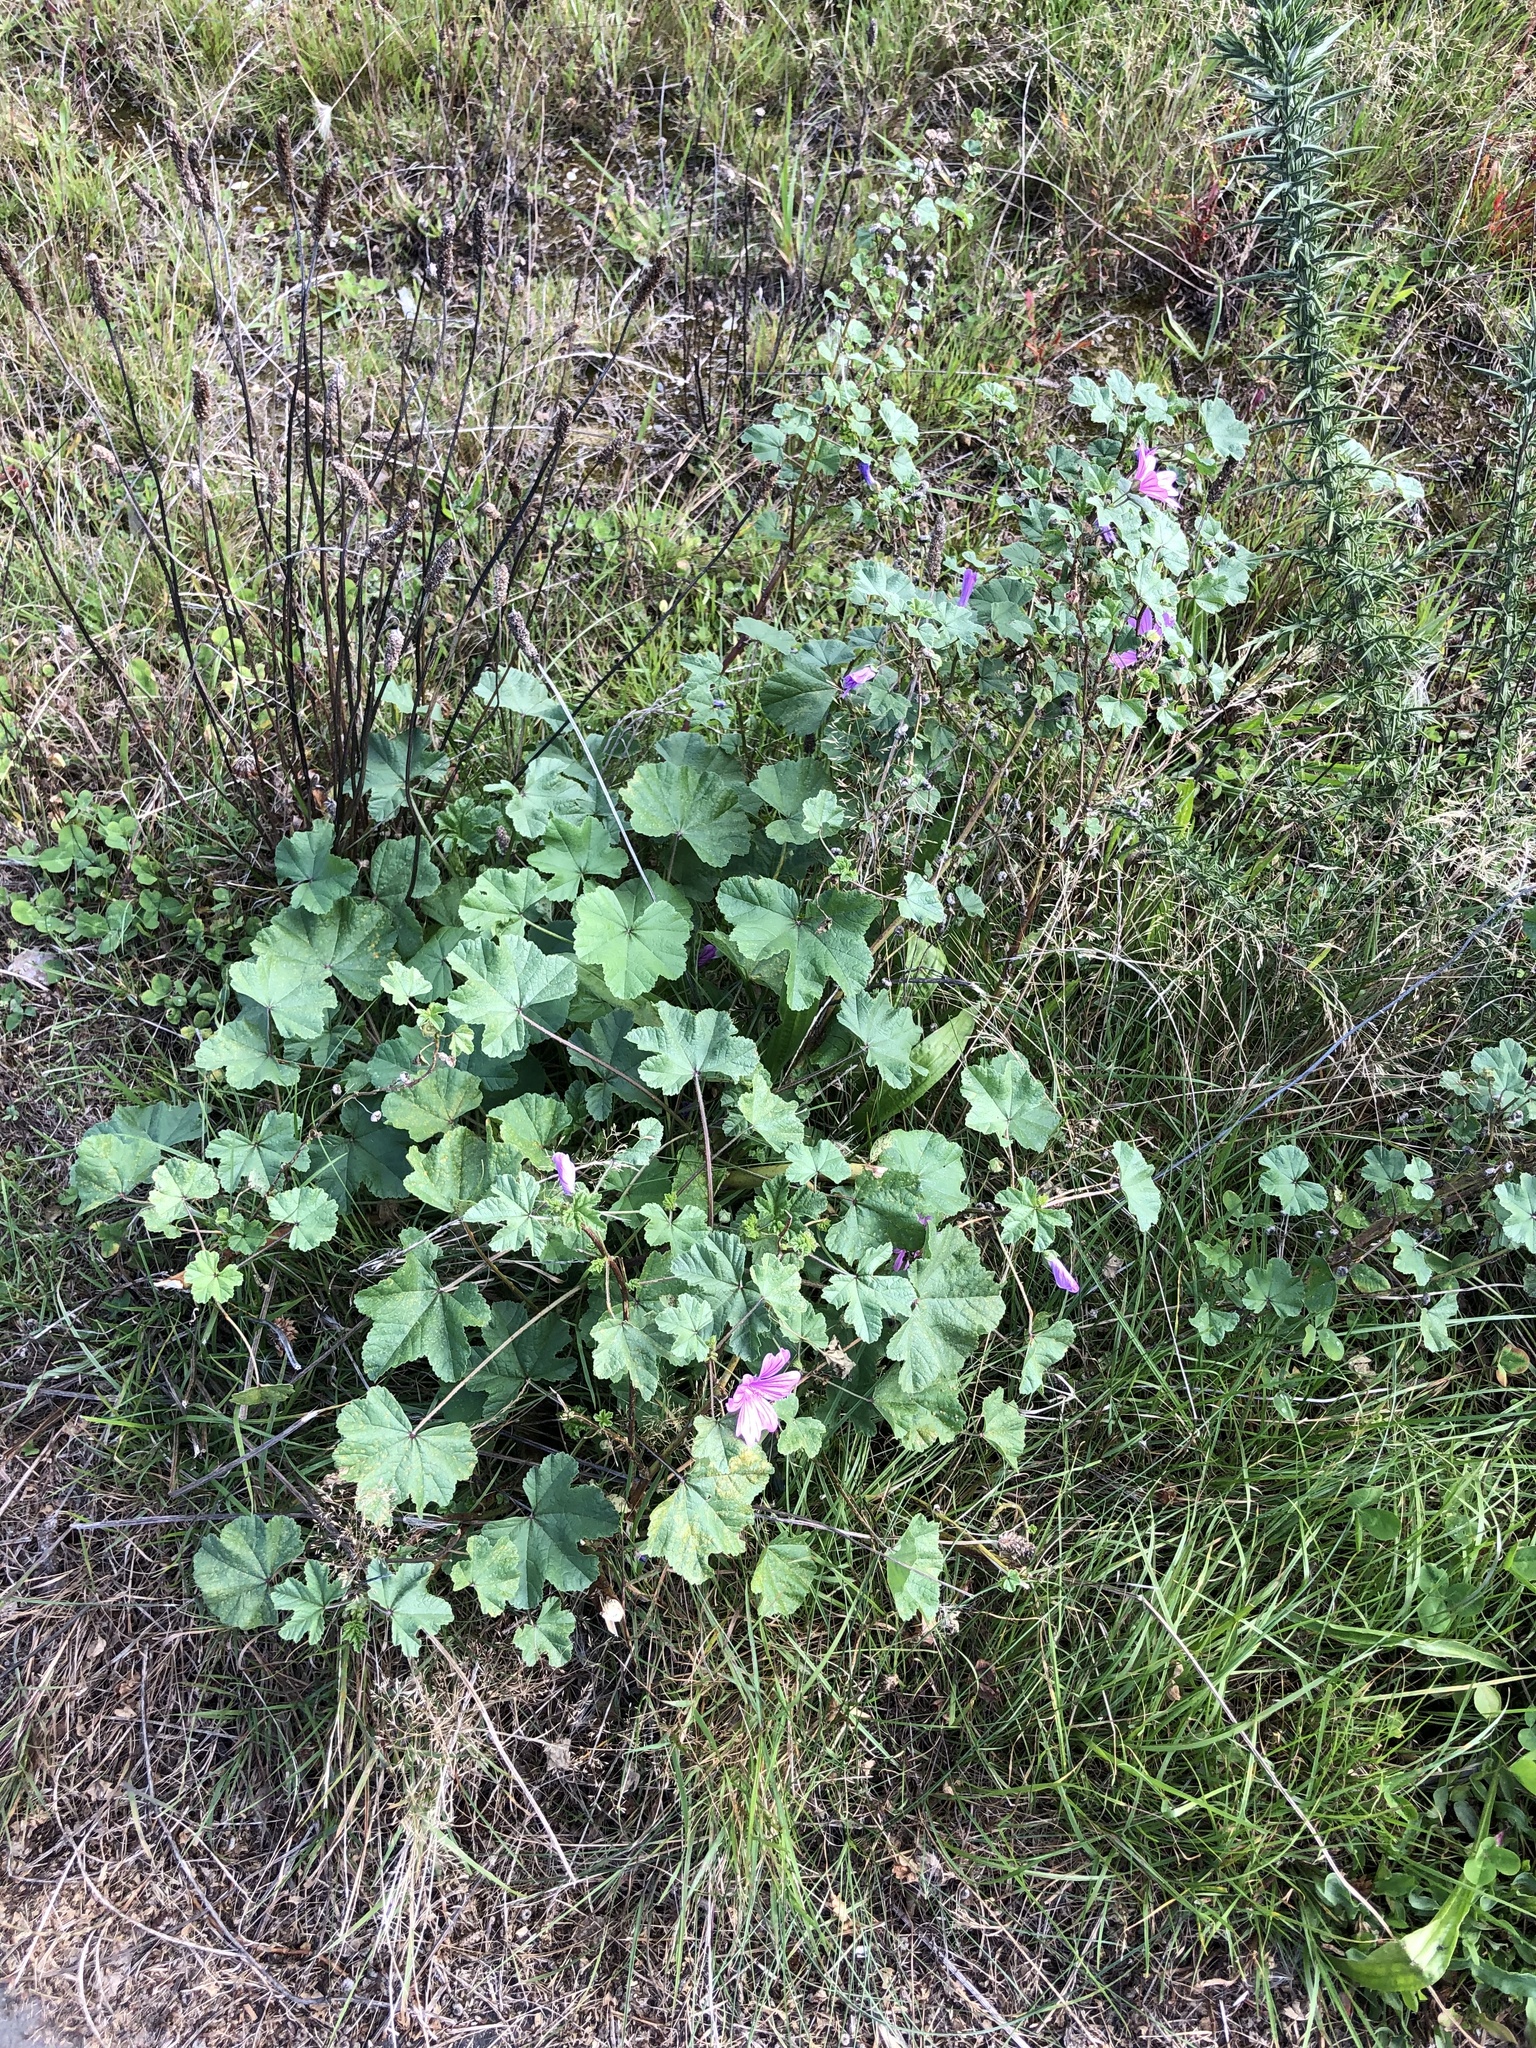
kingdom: Fungi
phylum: Basidiomycota
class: Pucciniomycetes
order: Pucciniales
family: Pucciniaceae
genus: Puccinia
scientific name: Puccinia malvacearum
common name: Hollyhock rust
